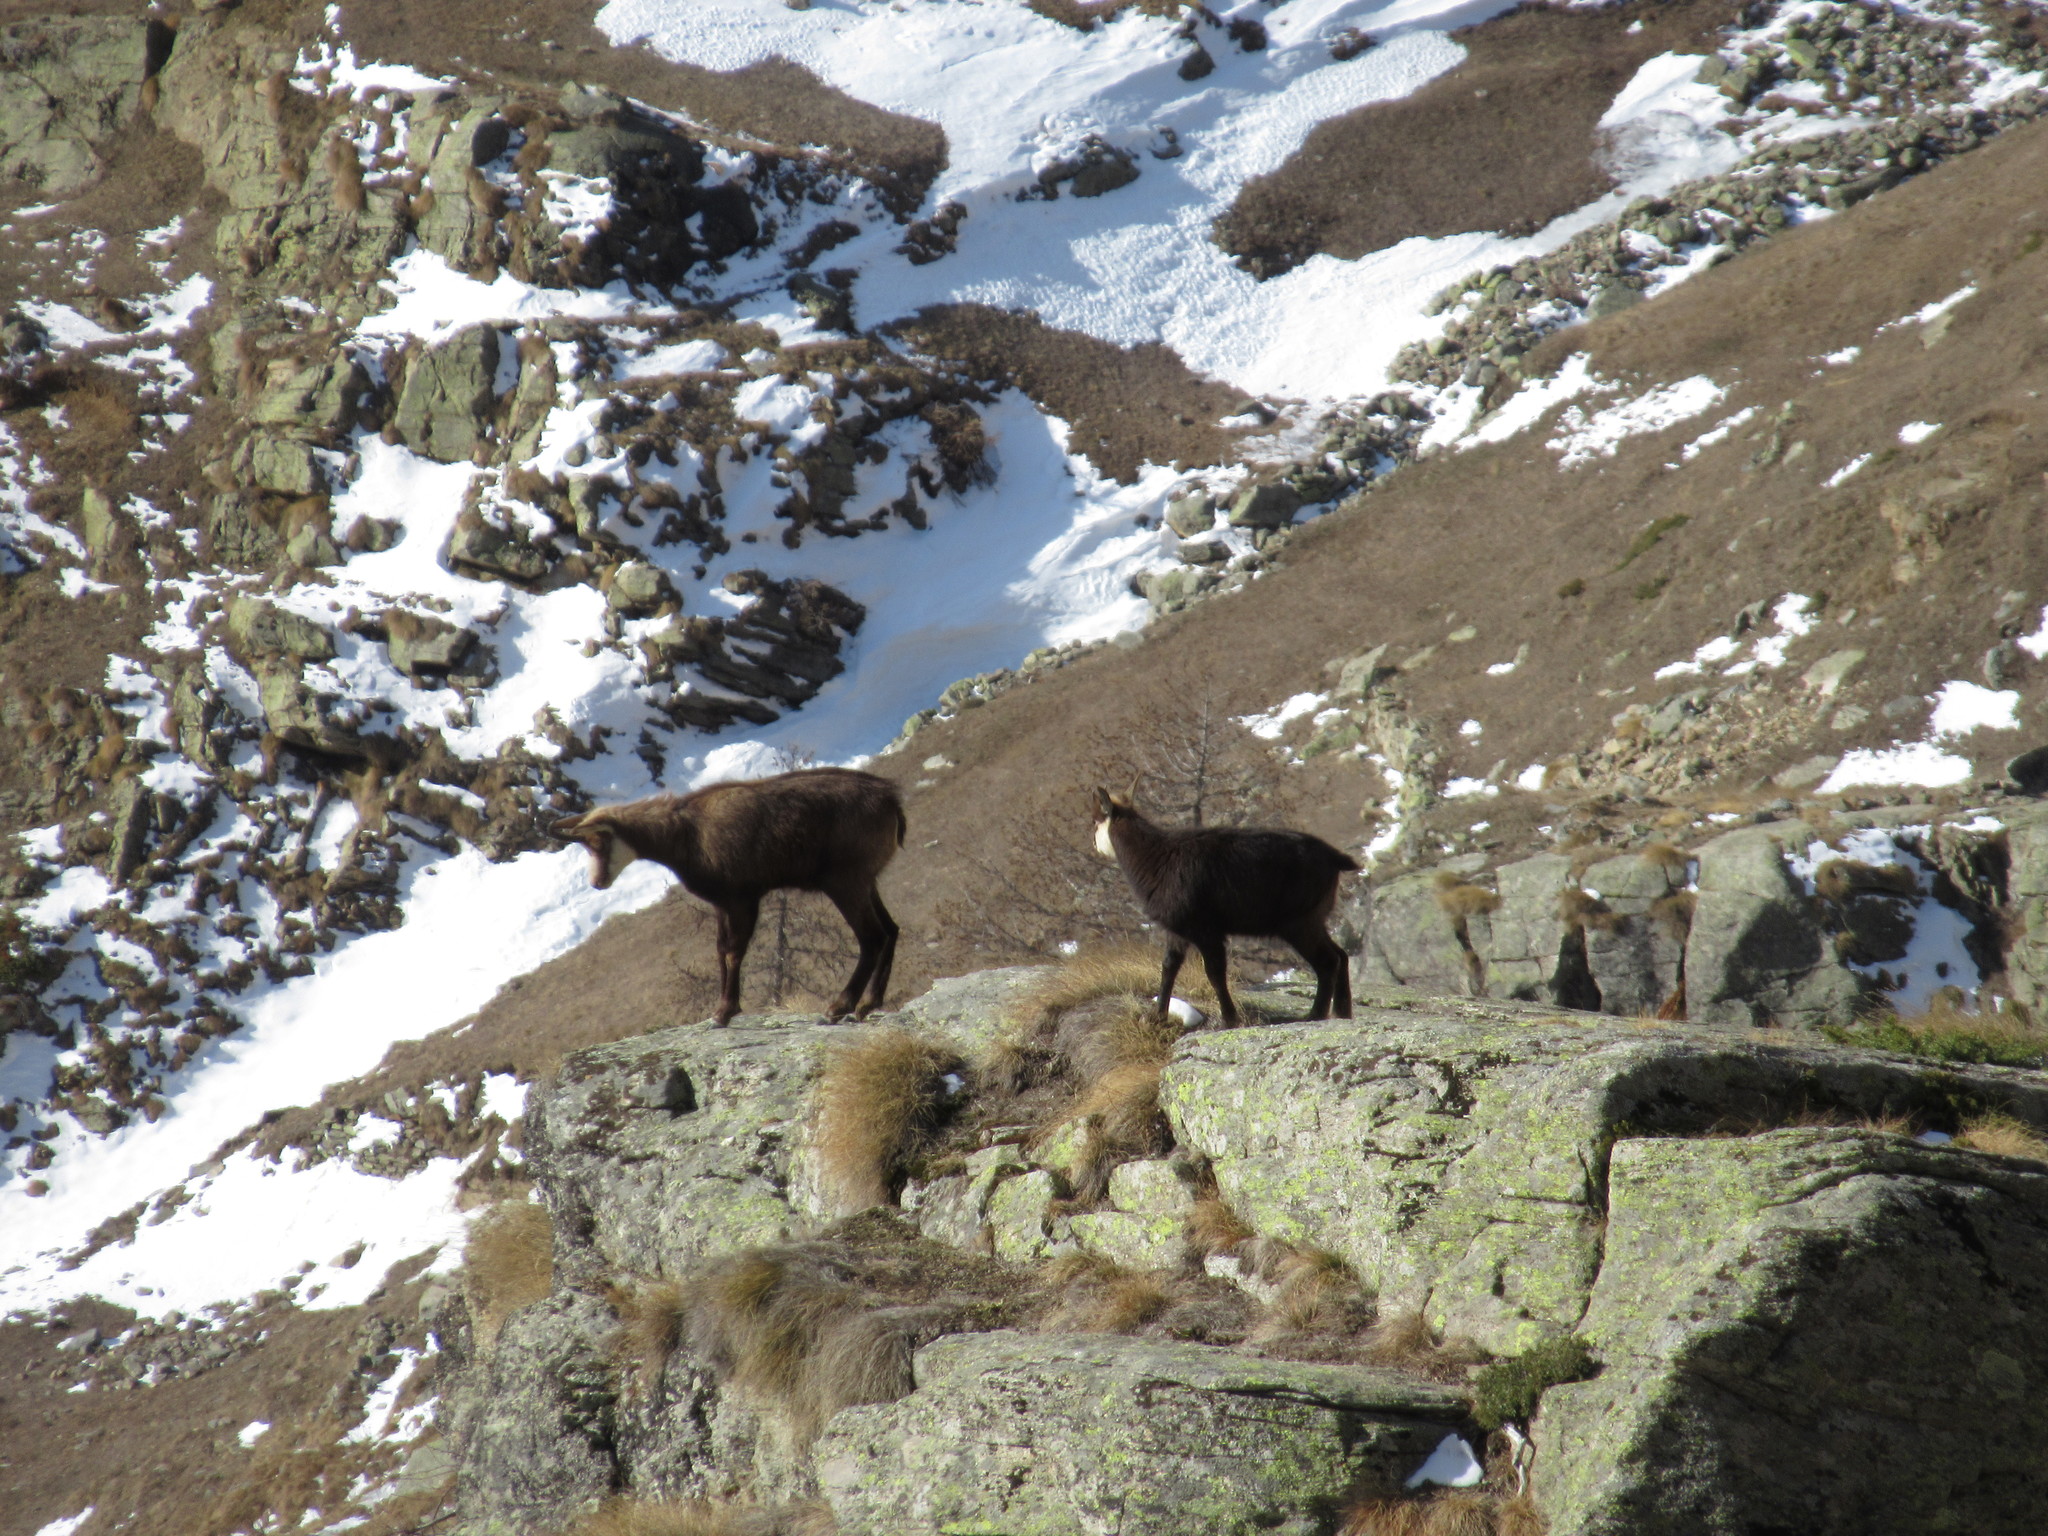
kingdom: Animalia
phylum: Chordata
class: Mammalia
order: Artiodactyla
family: Bovidae
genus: Rupicapra
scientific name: Rupicapra rupicapra
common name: Chamois
